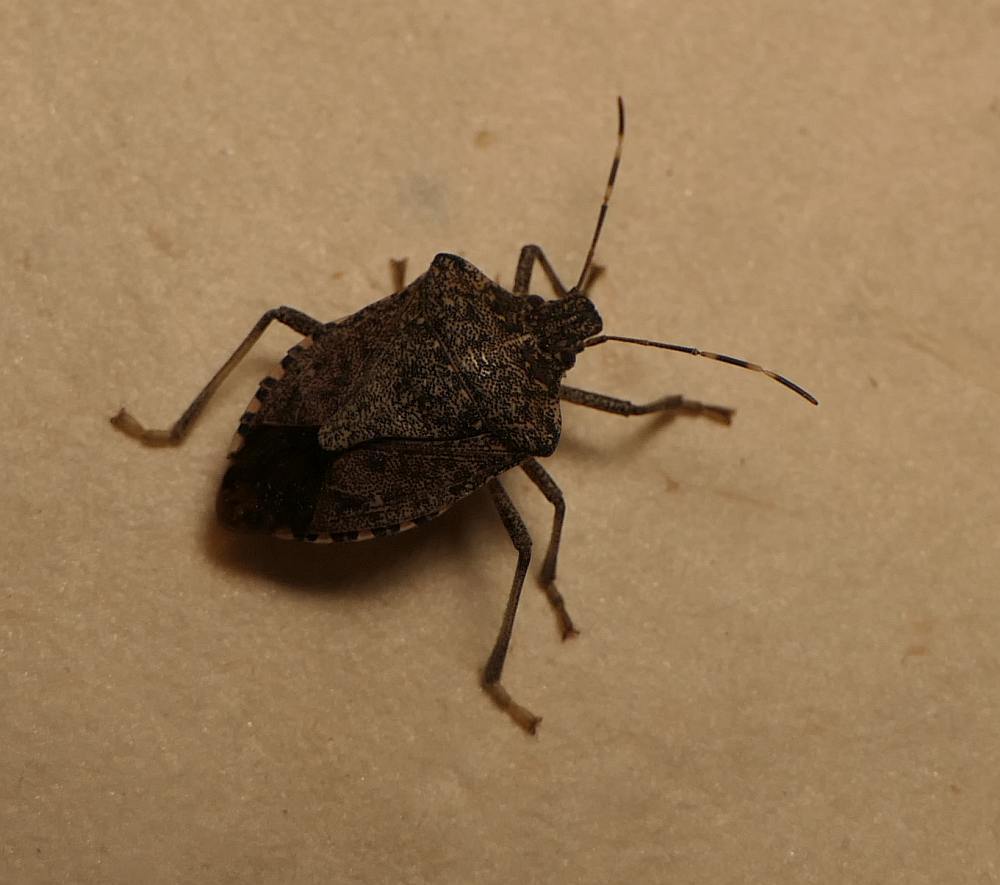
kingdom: Animalia
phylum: Arthropoda
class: Insecta
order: Hemiptera
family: Pentatomidae
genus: Halyomorpha
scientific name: Halyomorpha halys
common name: Brown marmorated stink bug
